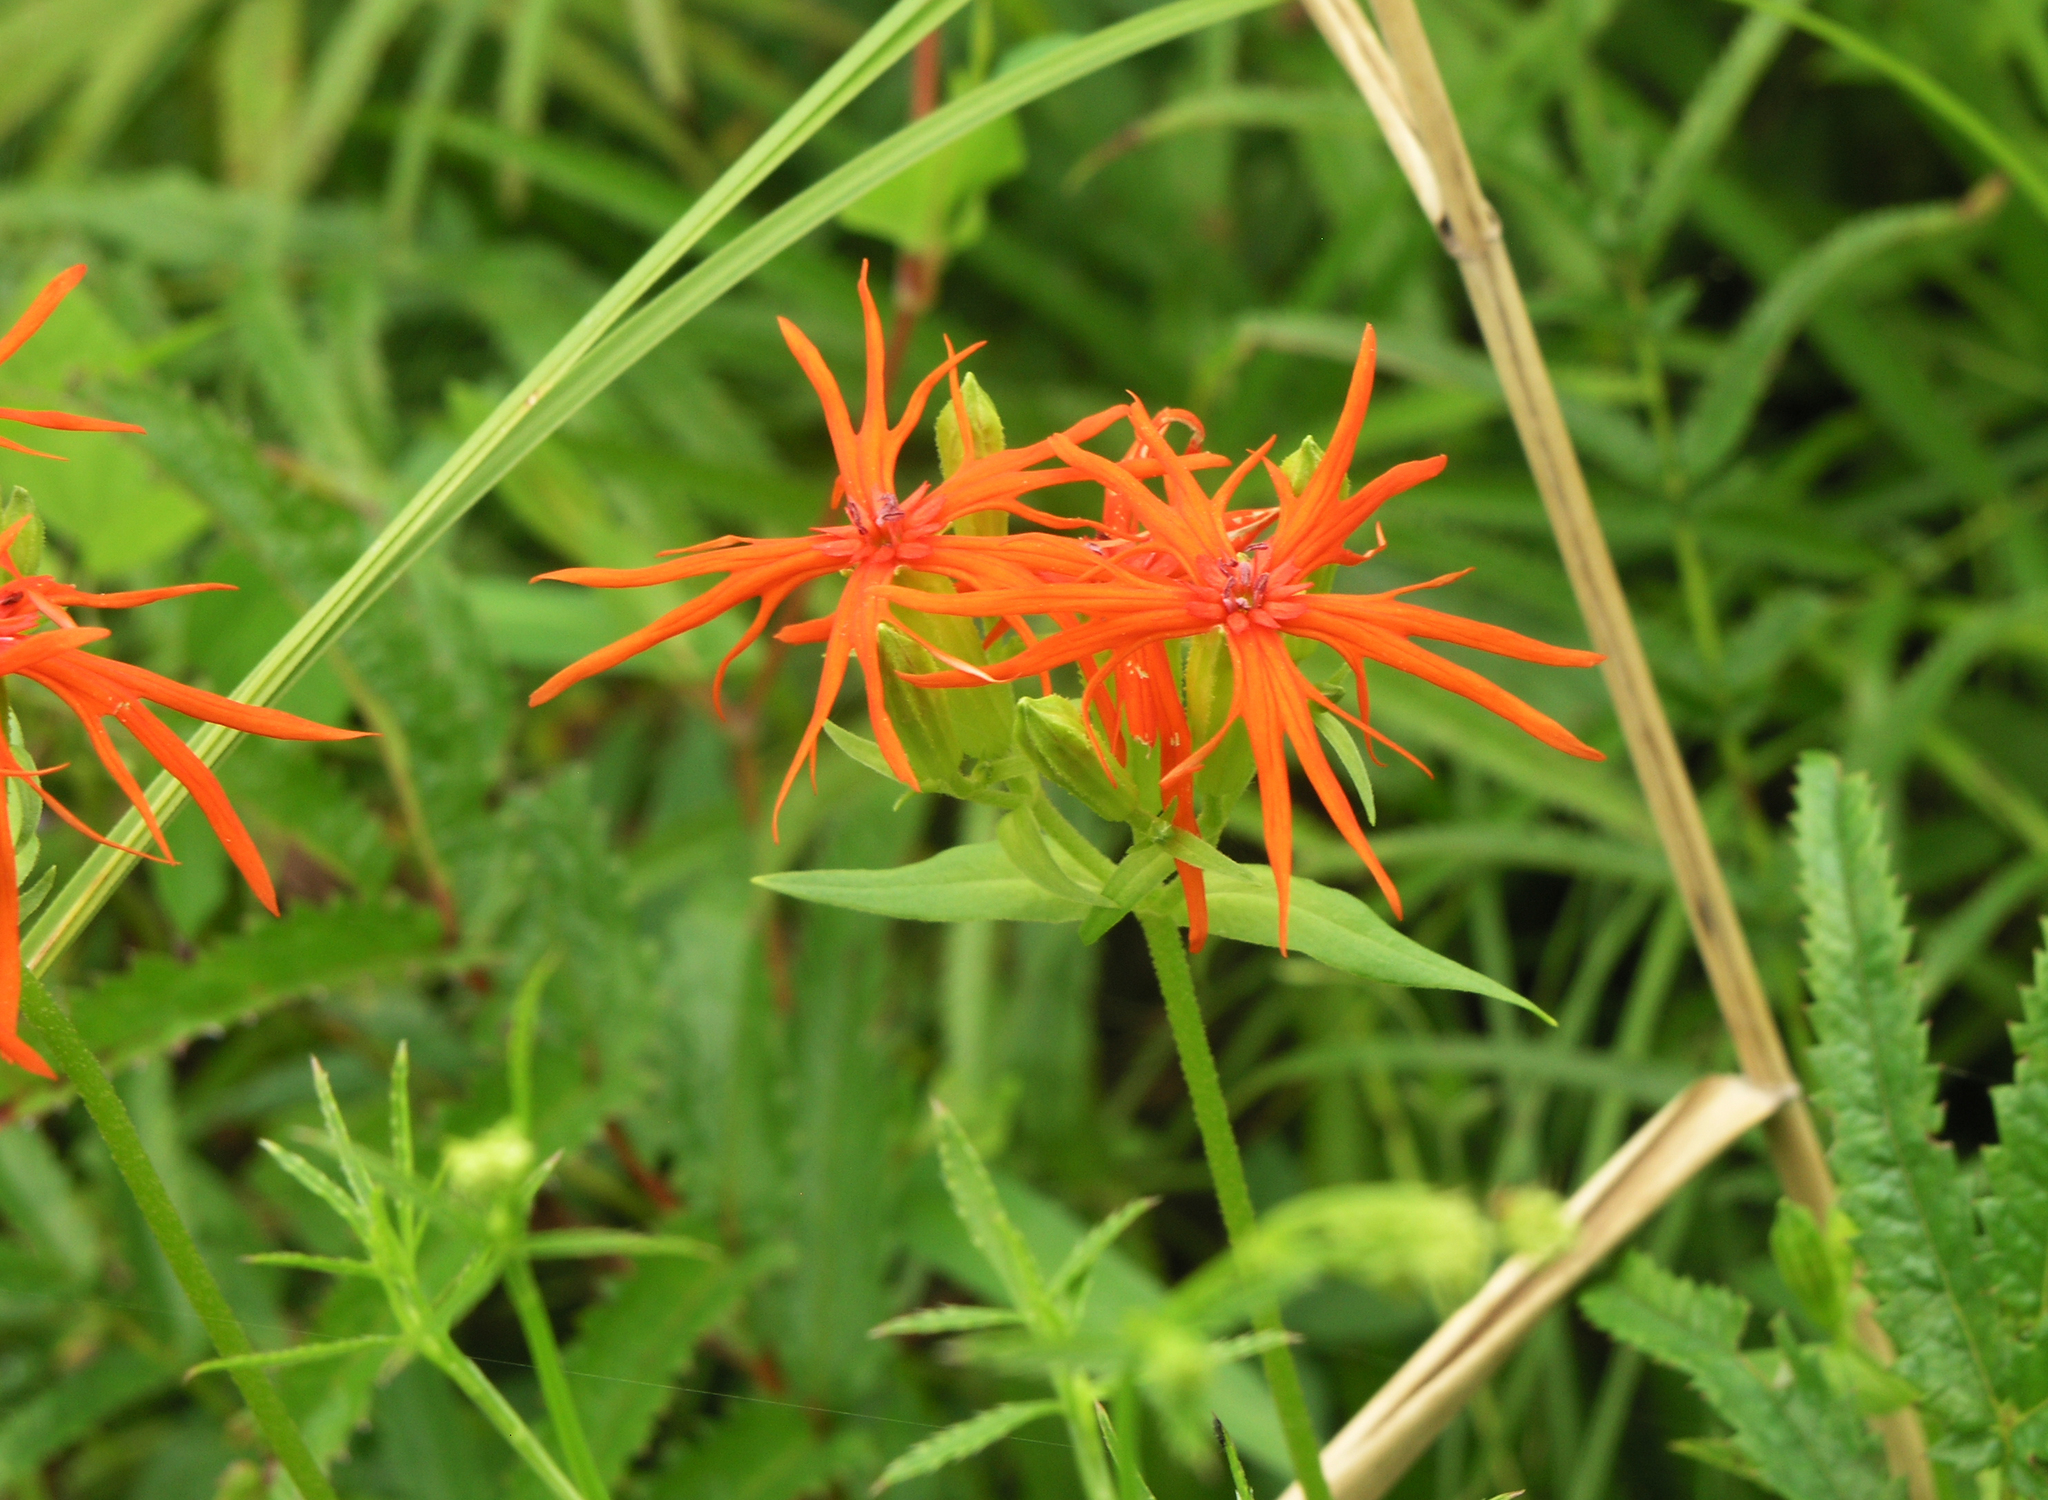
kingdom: Plantae
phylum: Tracheophyta
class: Magnoliopsida
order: Caryophyllales
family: Caryophyllaceae
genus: Silene
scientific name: Silene wilfordii
